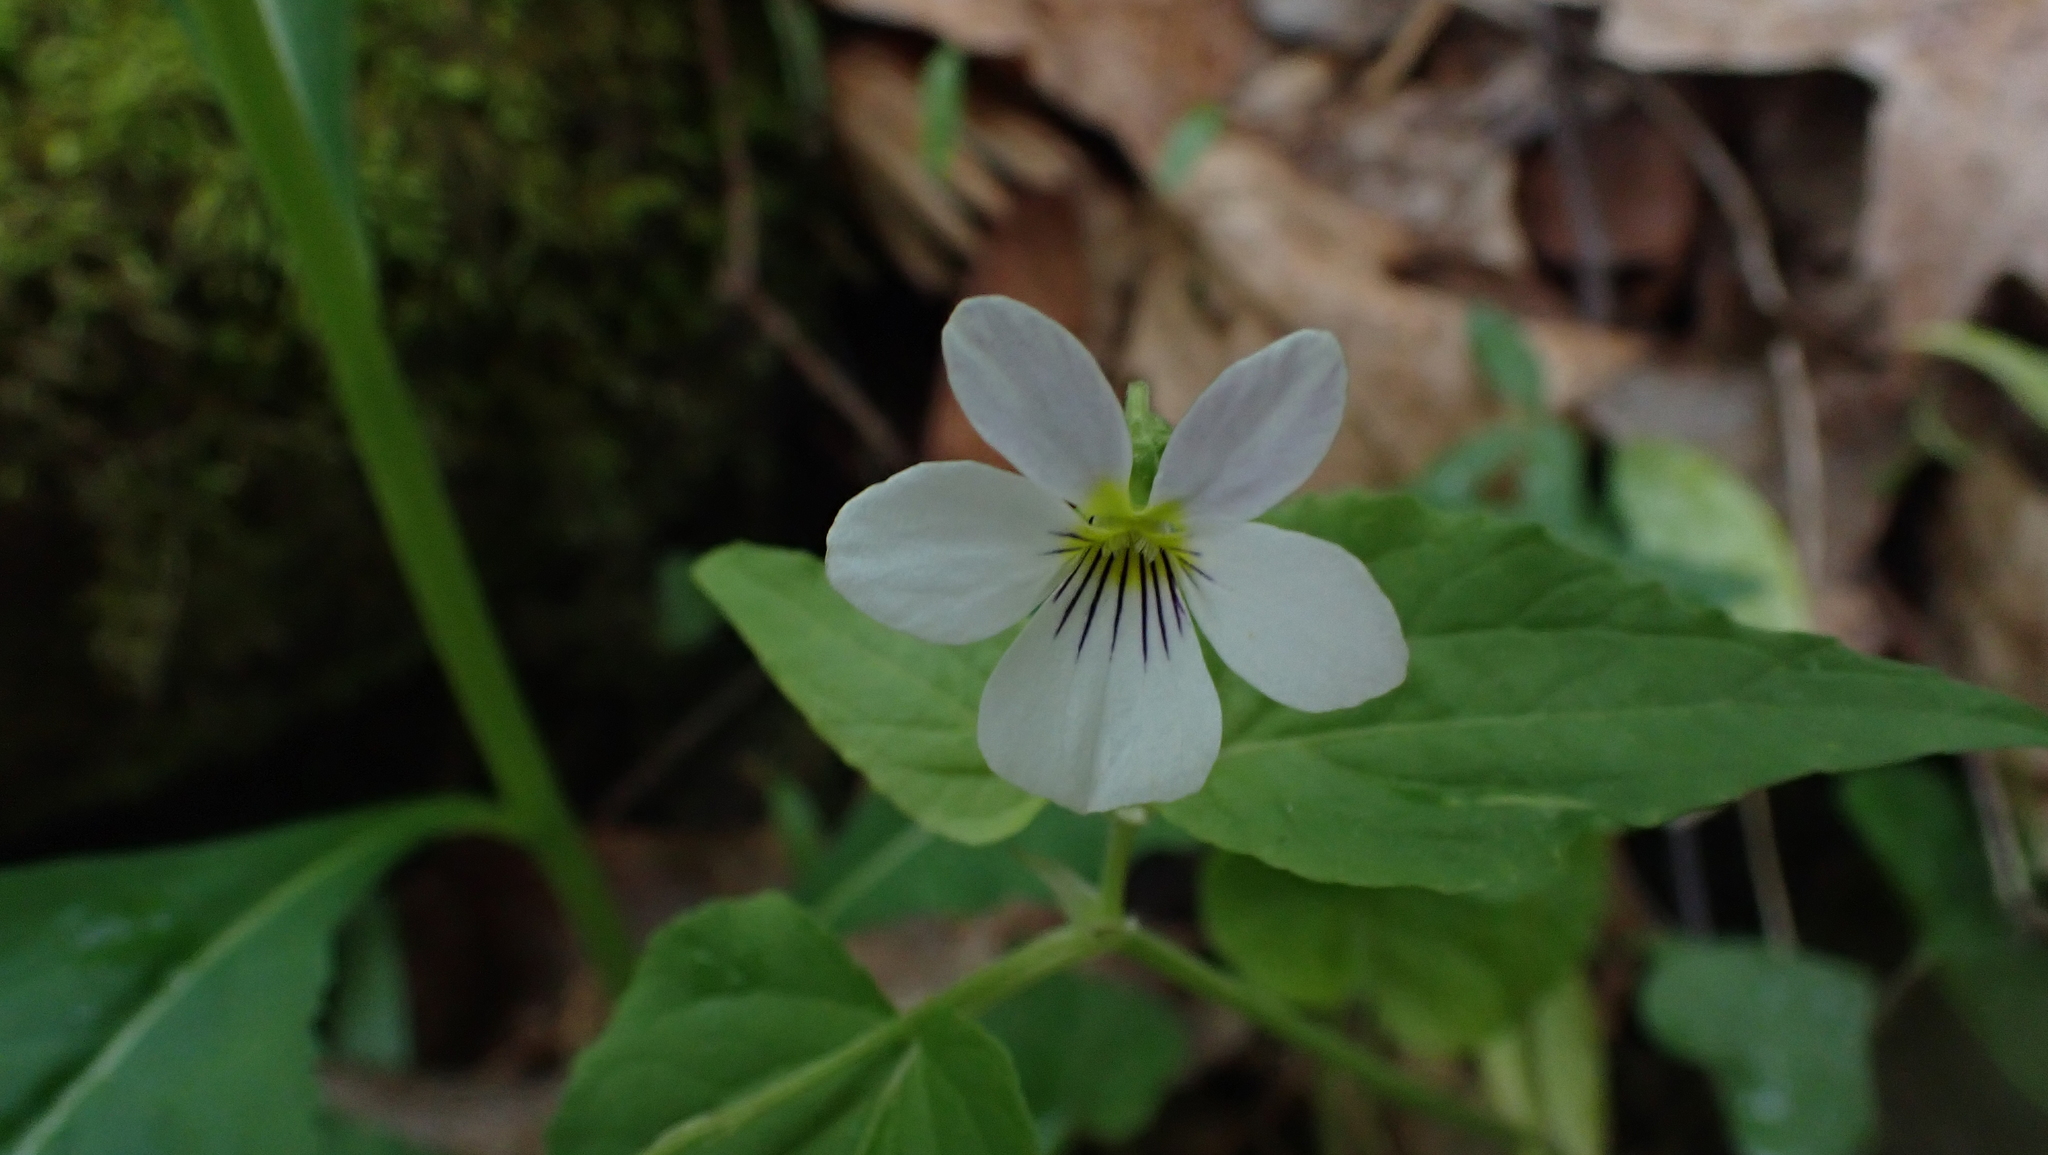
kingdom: Plantae
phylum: Tracheophyta
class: Magnoliopsida
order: Malpighiales
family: Violaceae
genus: Viola
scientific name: Viola canadensis
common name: Canada violet
